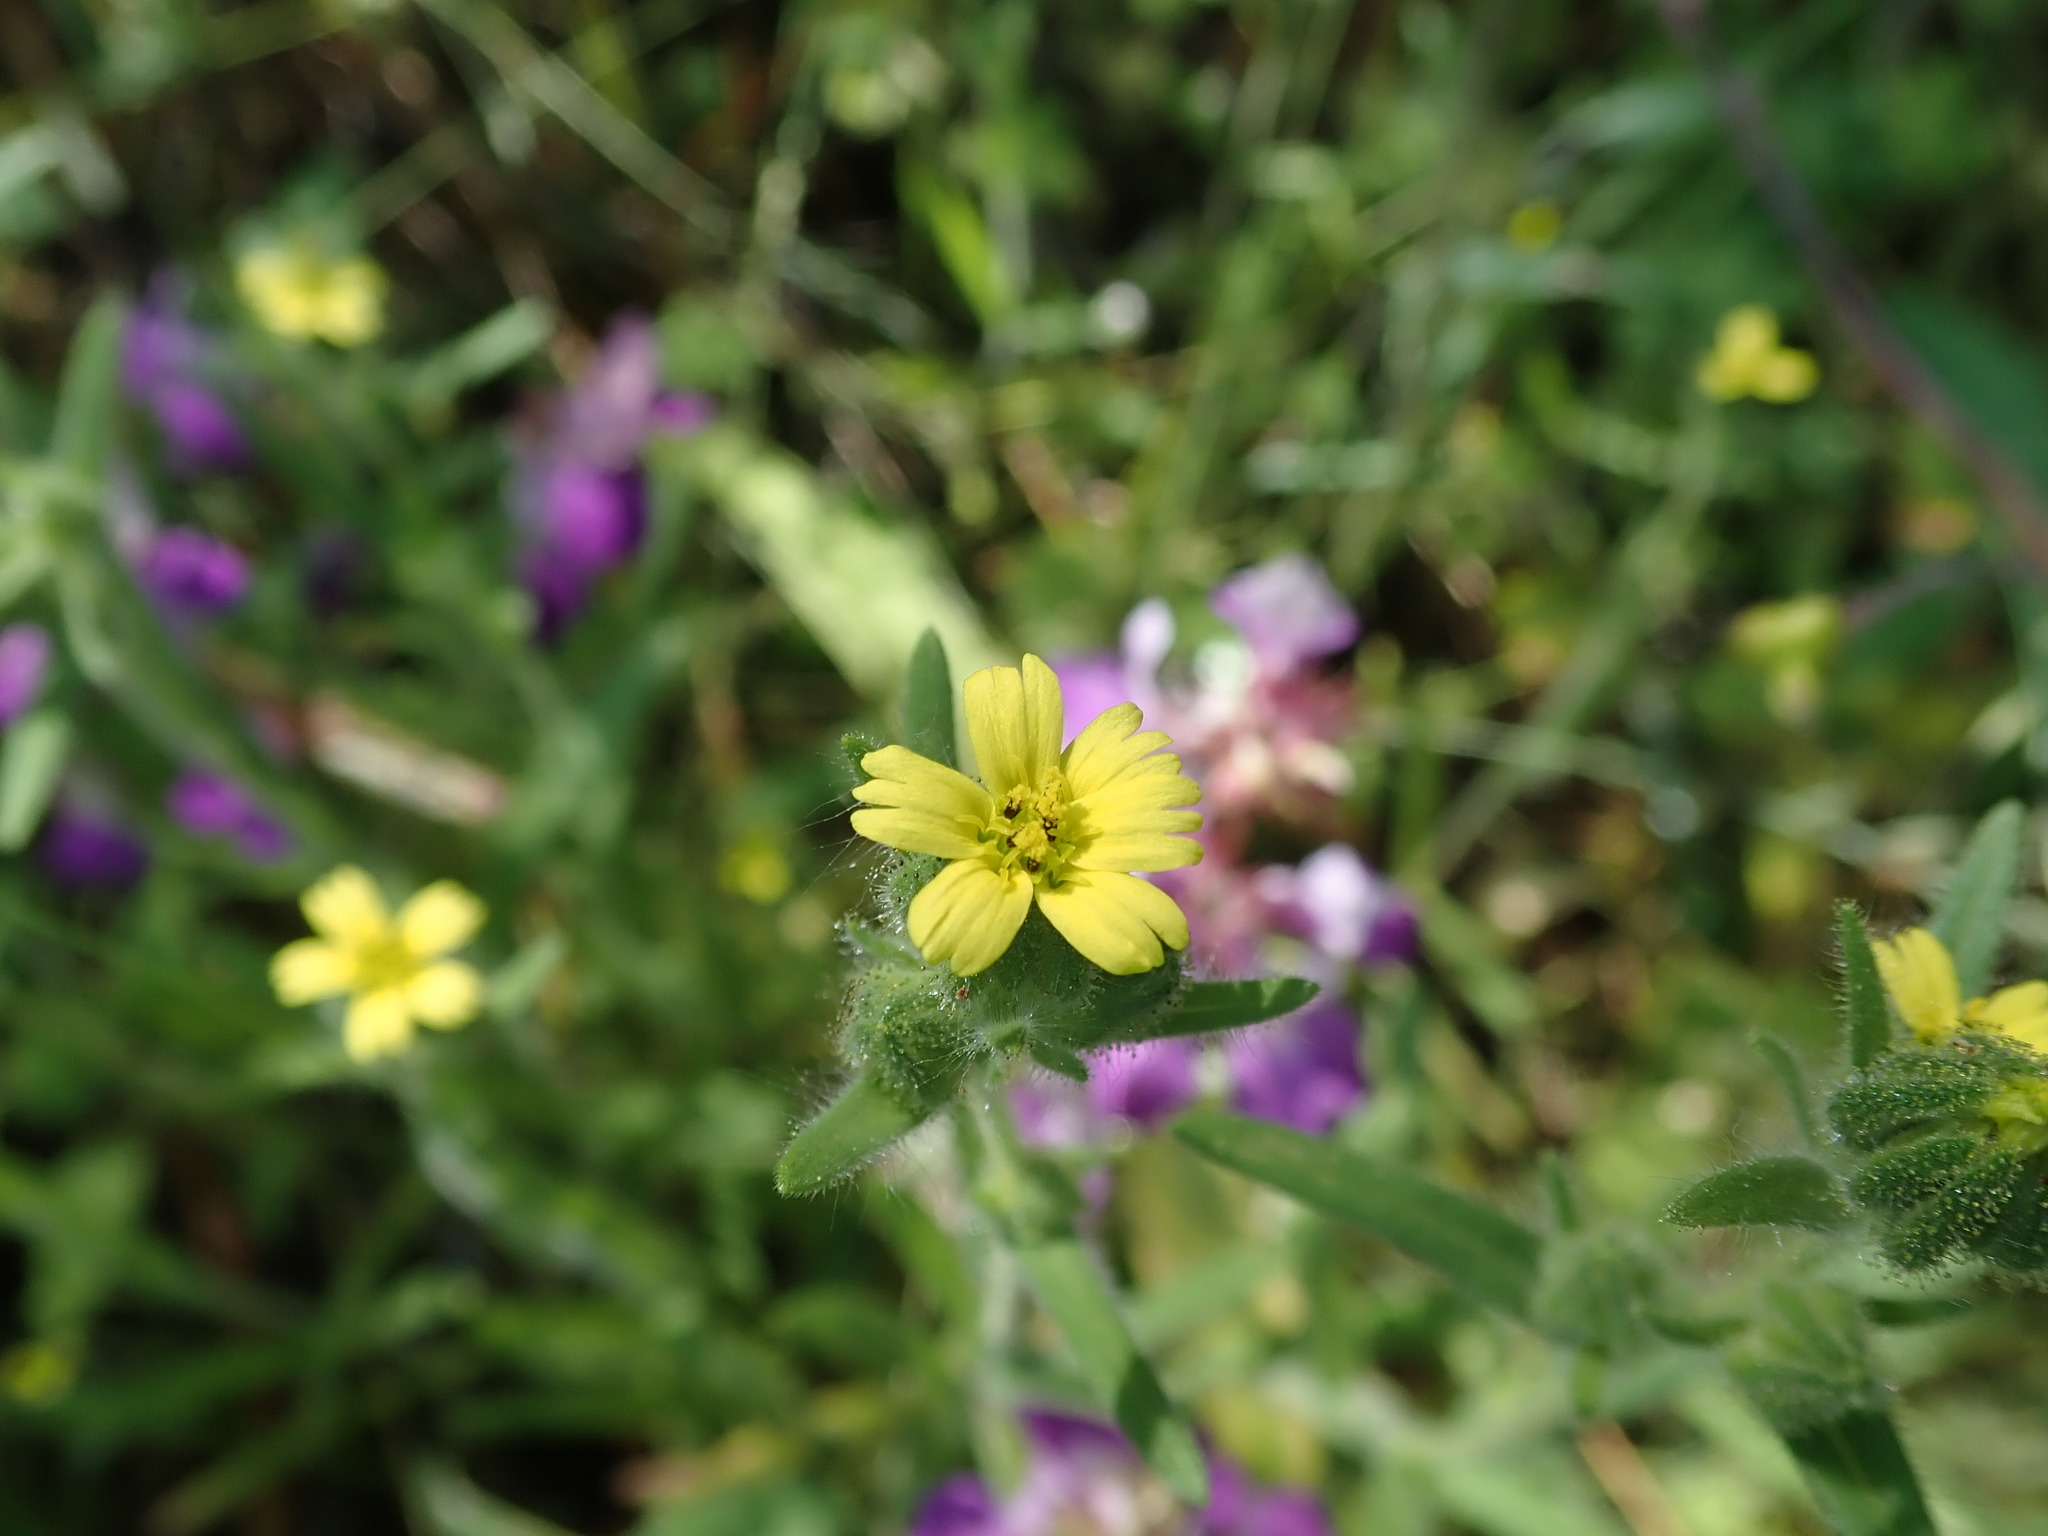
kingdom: Plantae
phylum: Tracheophyta
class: Magnoliopsida
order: Asterales
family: Asteraceae
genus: Madia
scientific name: Madia gracilis
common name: Grassy tarweed
